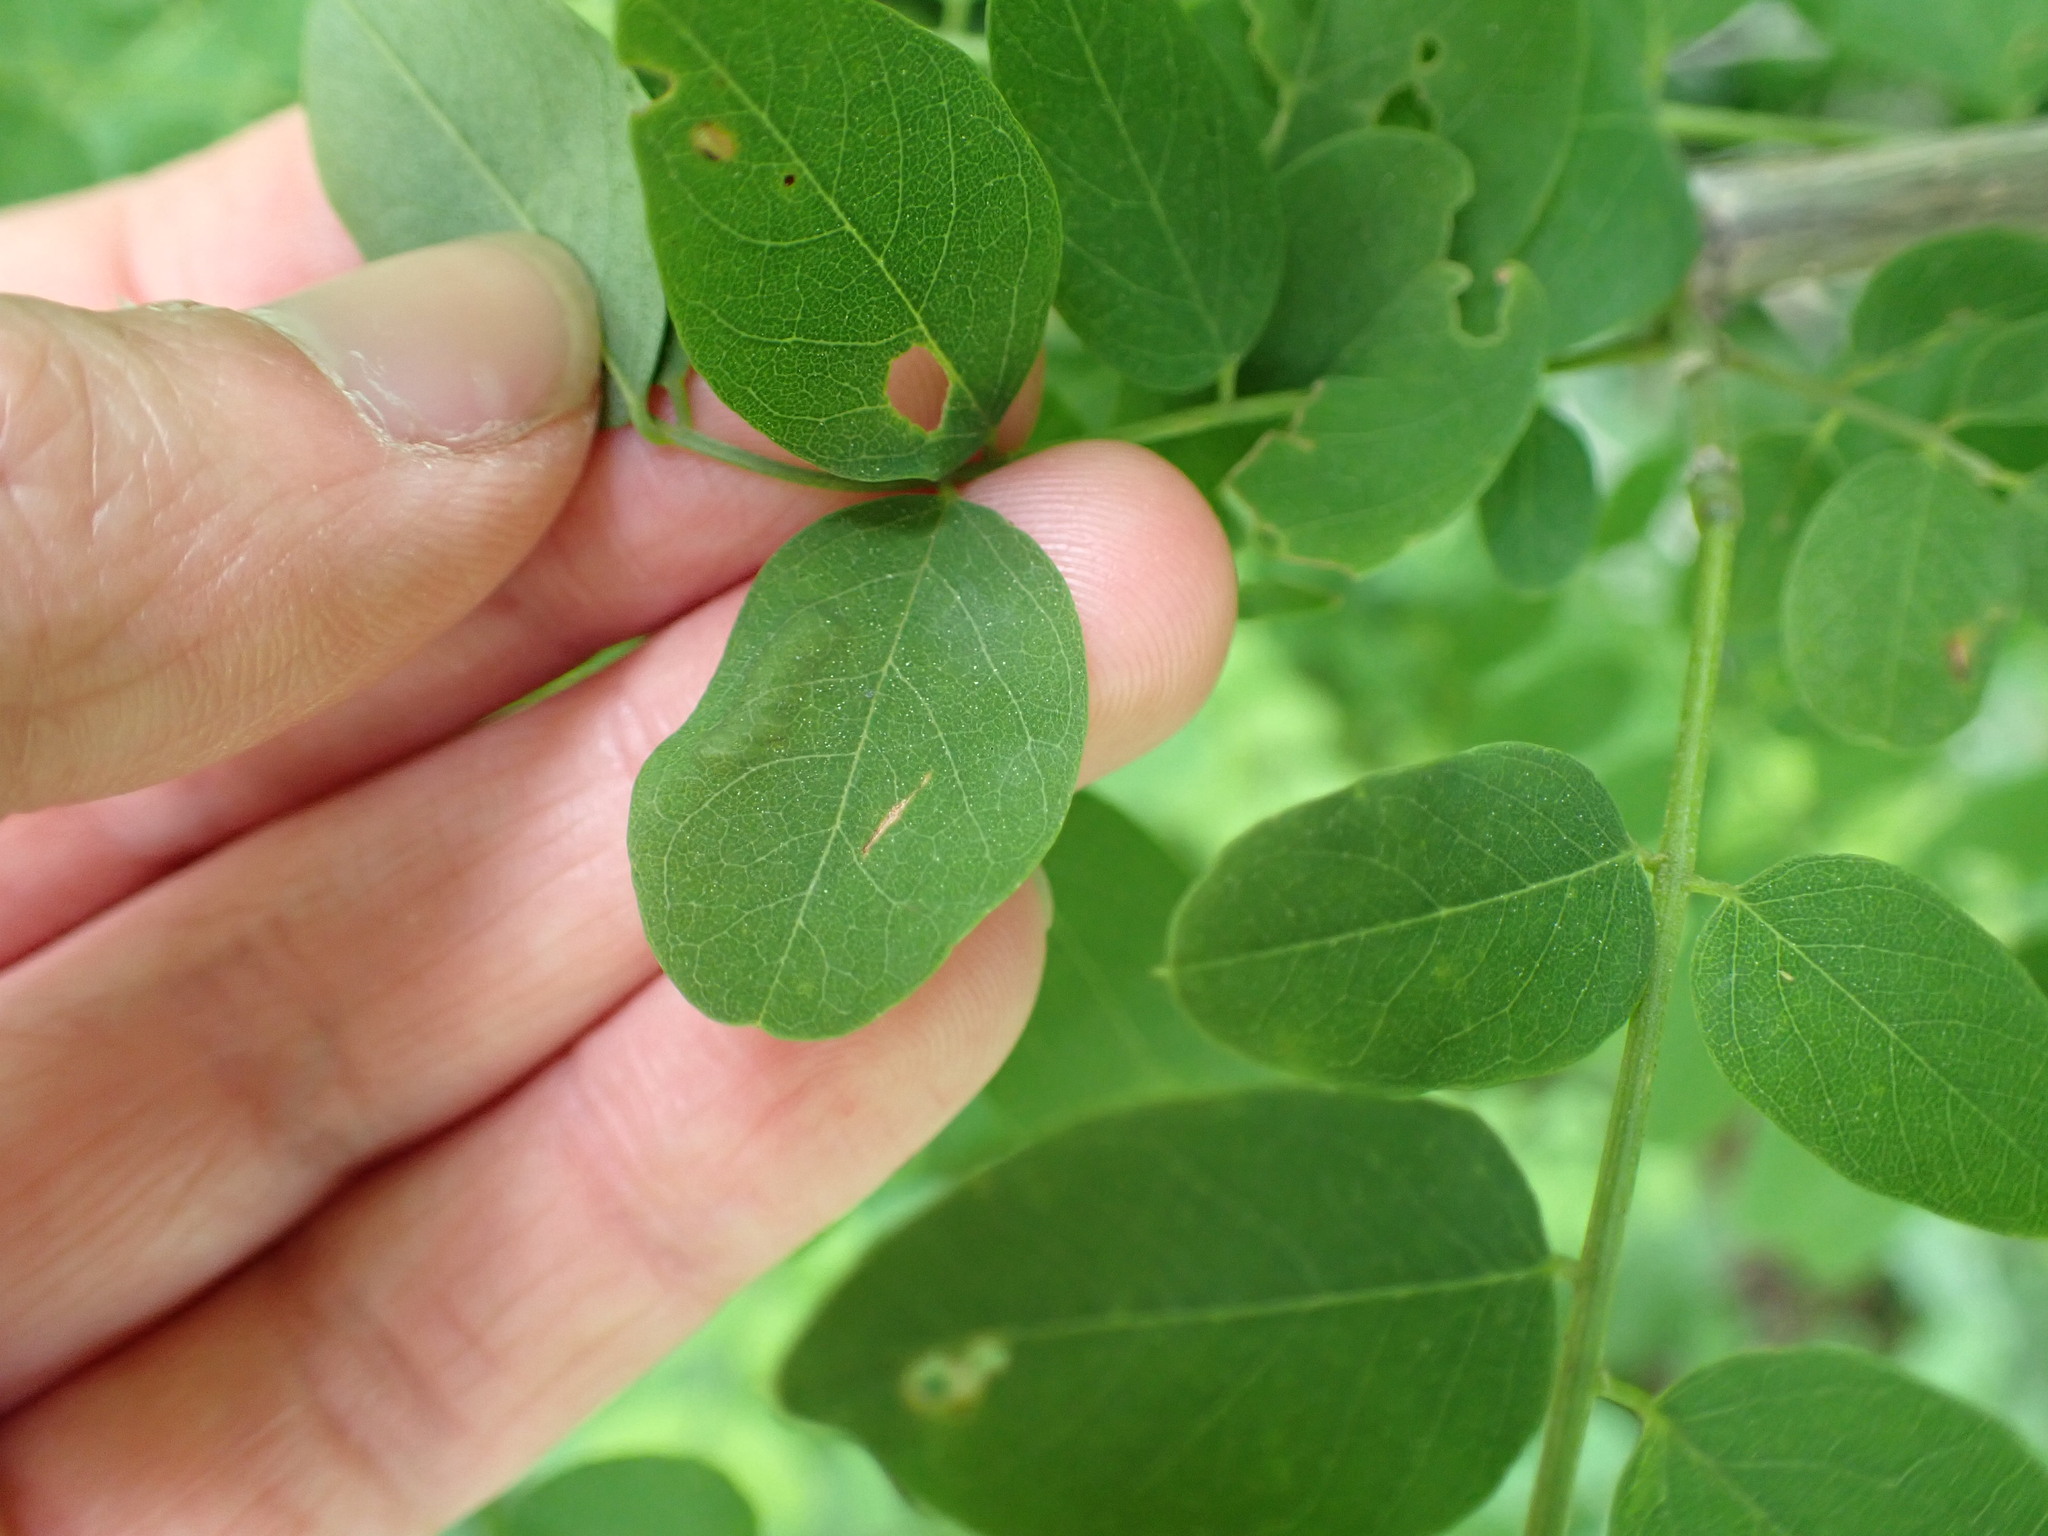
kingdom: Plantae
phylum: Tracheophyta
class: Magnoliopsida
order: Fabales
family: Fabaceae
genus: Robinia
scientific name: Robinia pseudoacacia
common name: Black locust
